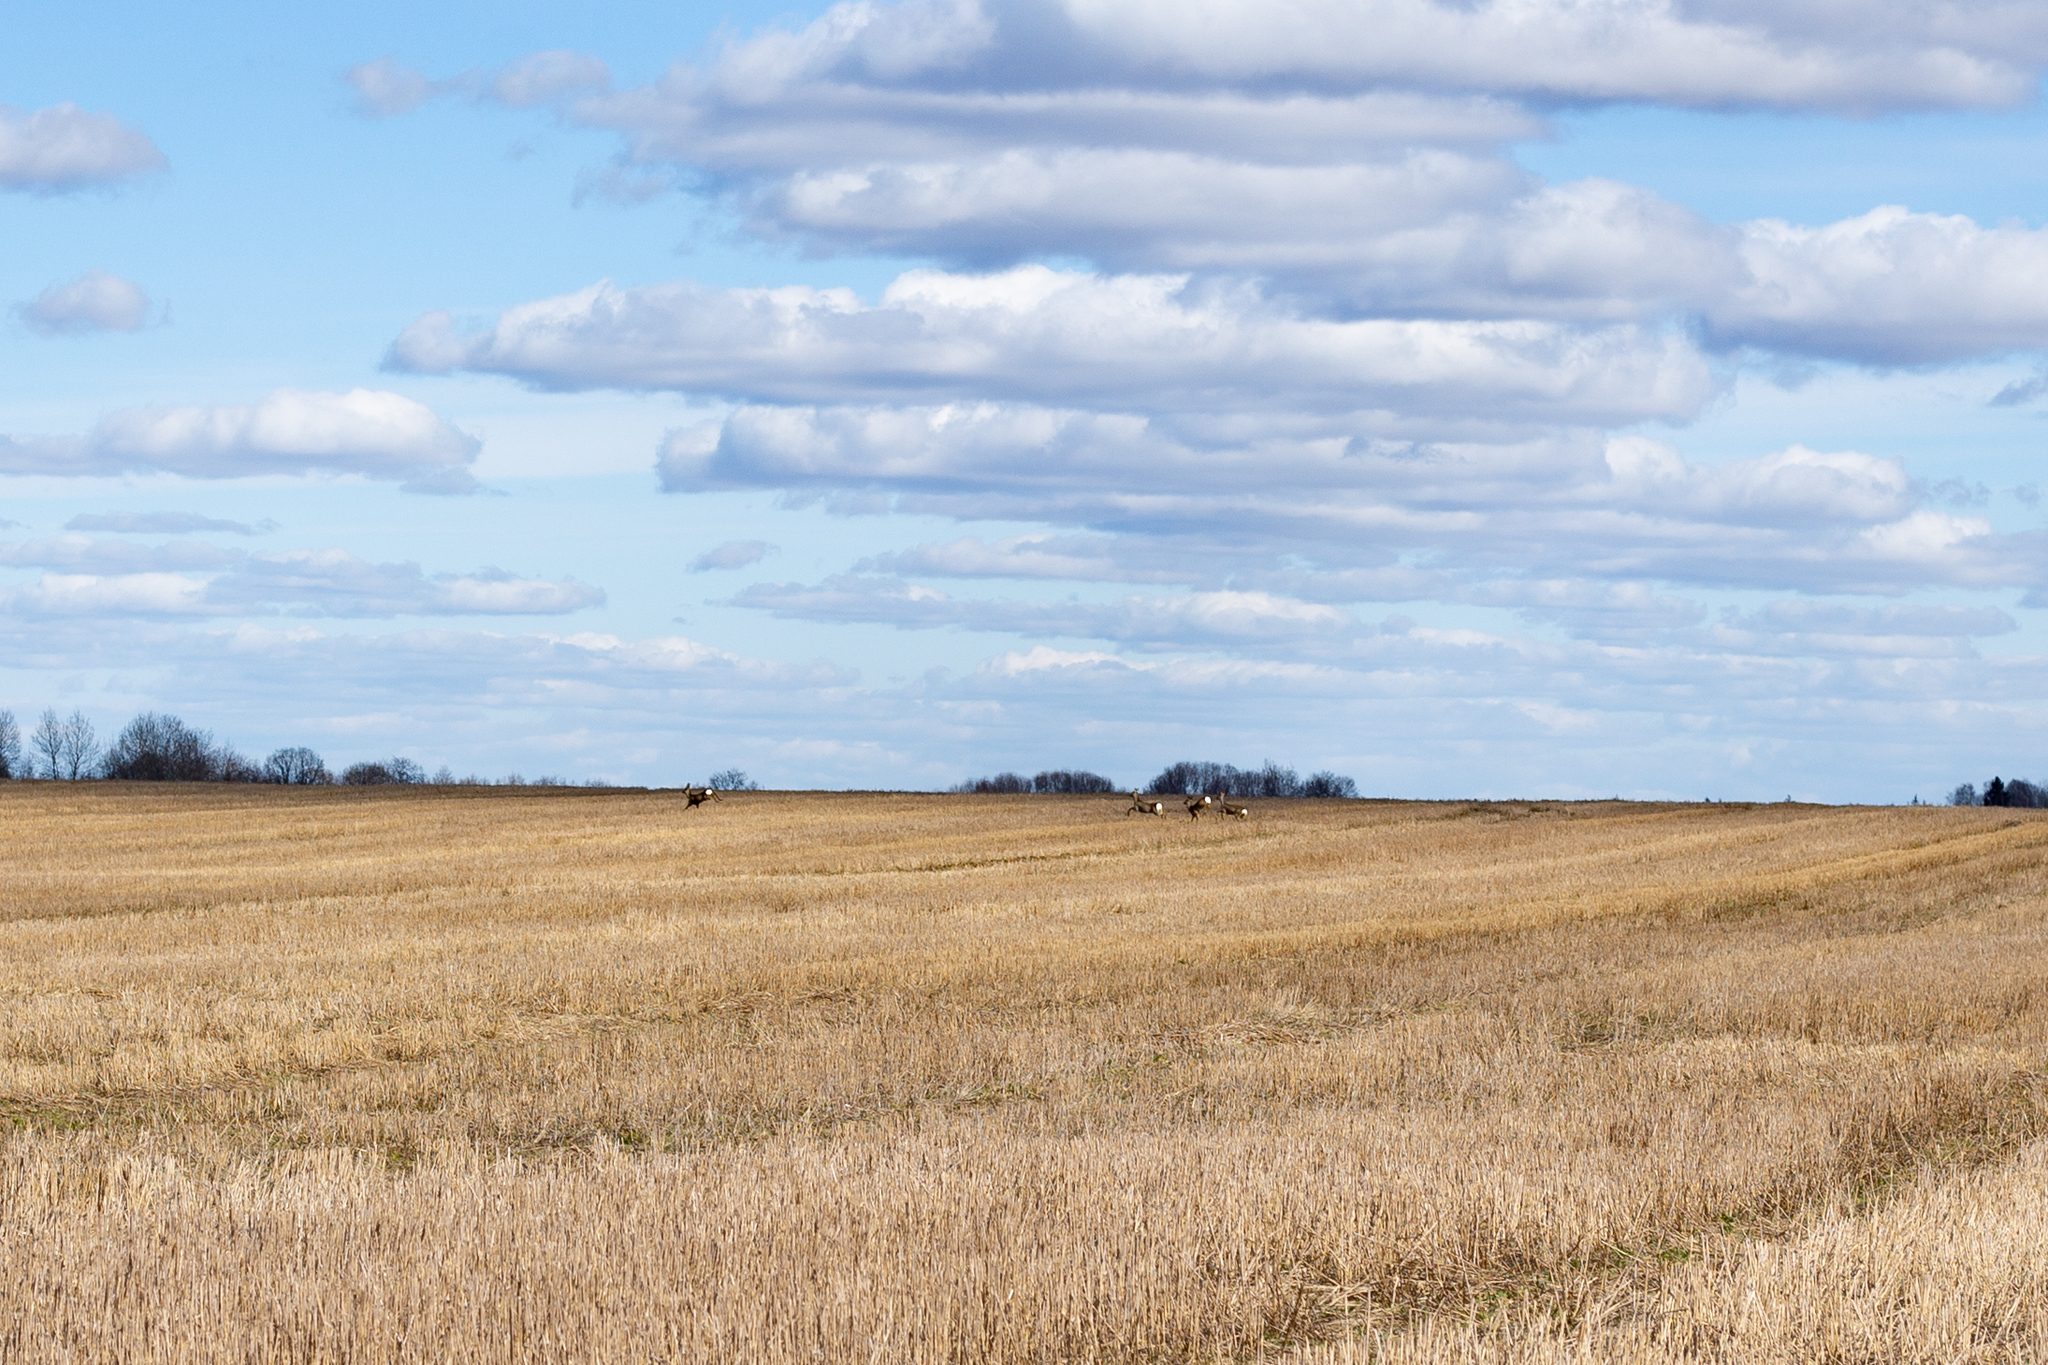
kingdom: Animalia
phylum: Chordata
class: Mammalia
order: Artiodactyla
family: Cervidae
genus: Capreolus
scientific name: Capreolus capreolus
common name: Western roe deer
